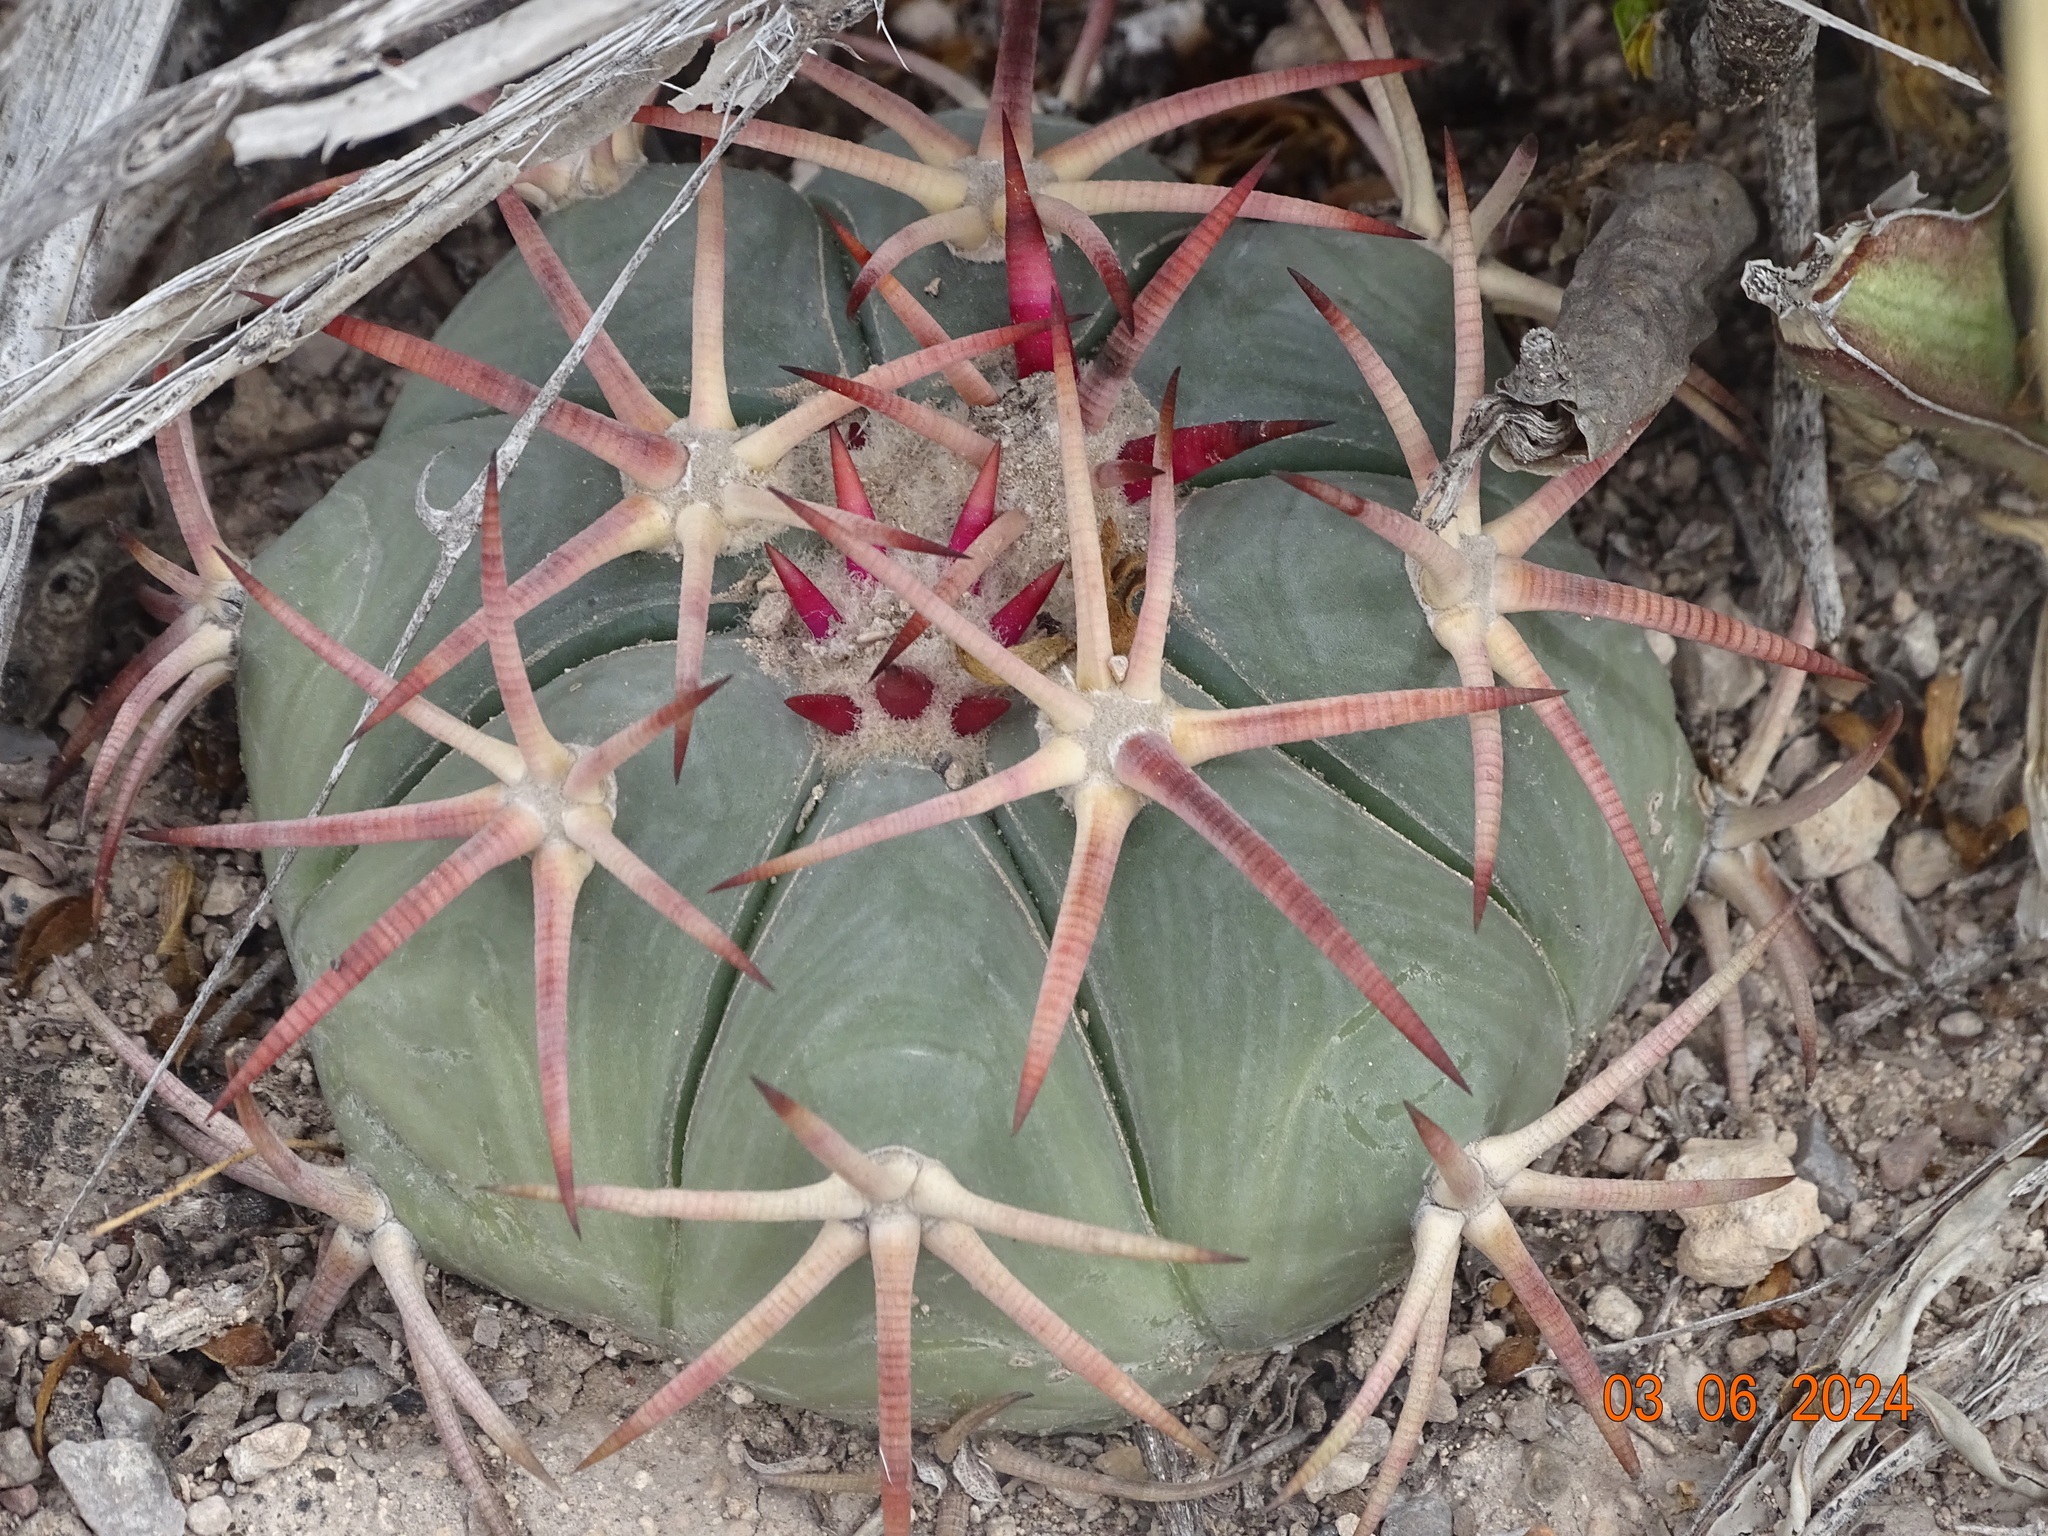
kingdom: Plantae
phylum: Tracheophyta
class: Magnoliopsida
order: Caryophyllales
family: Cactaceae
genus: Echinocactus
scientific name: Echinocactus horizonthalonius
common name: Devilshead
